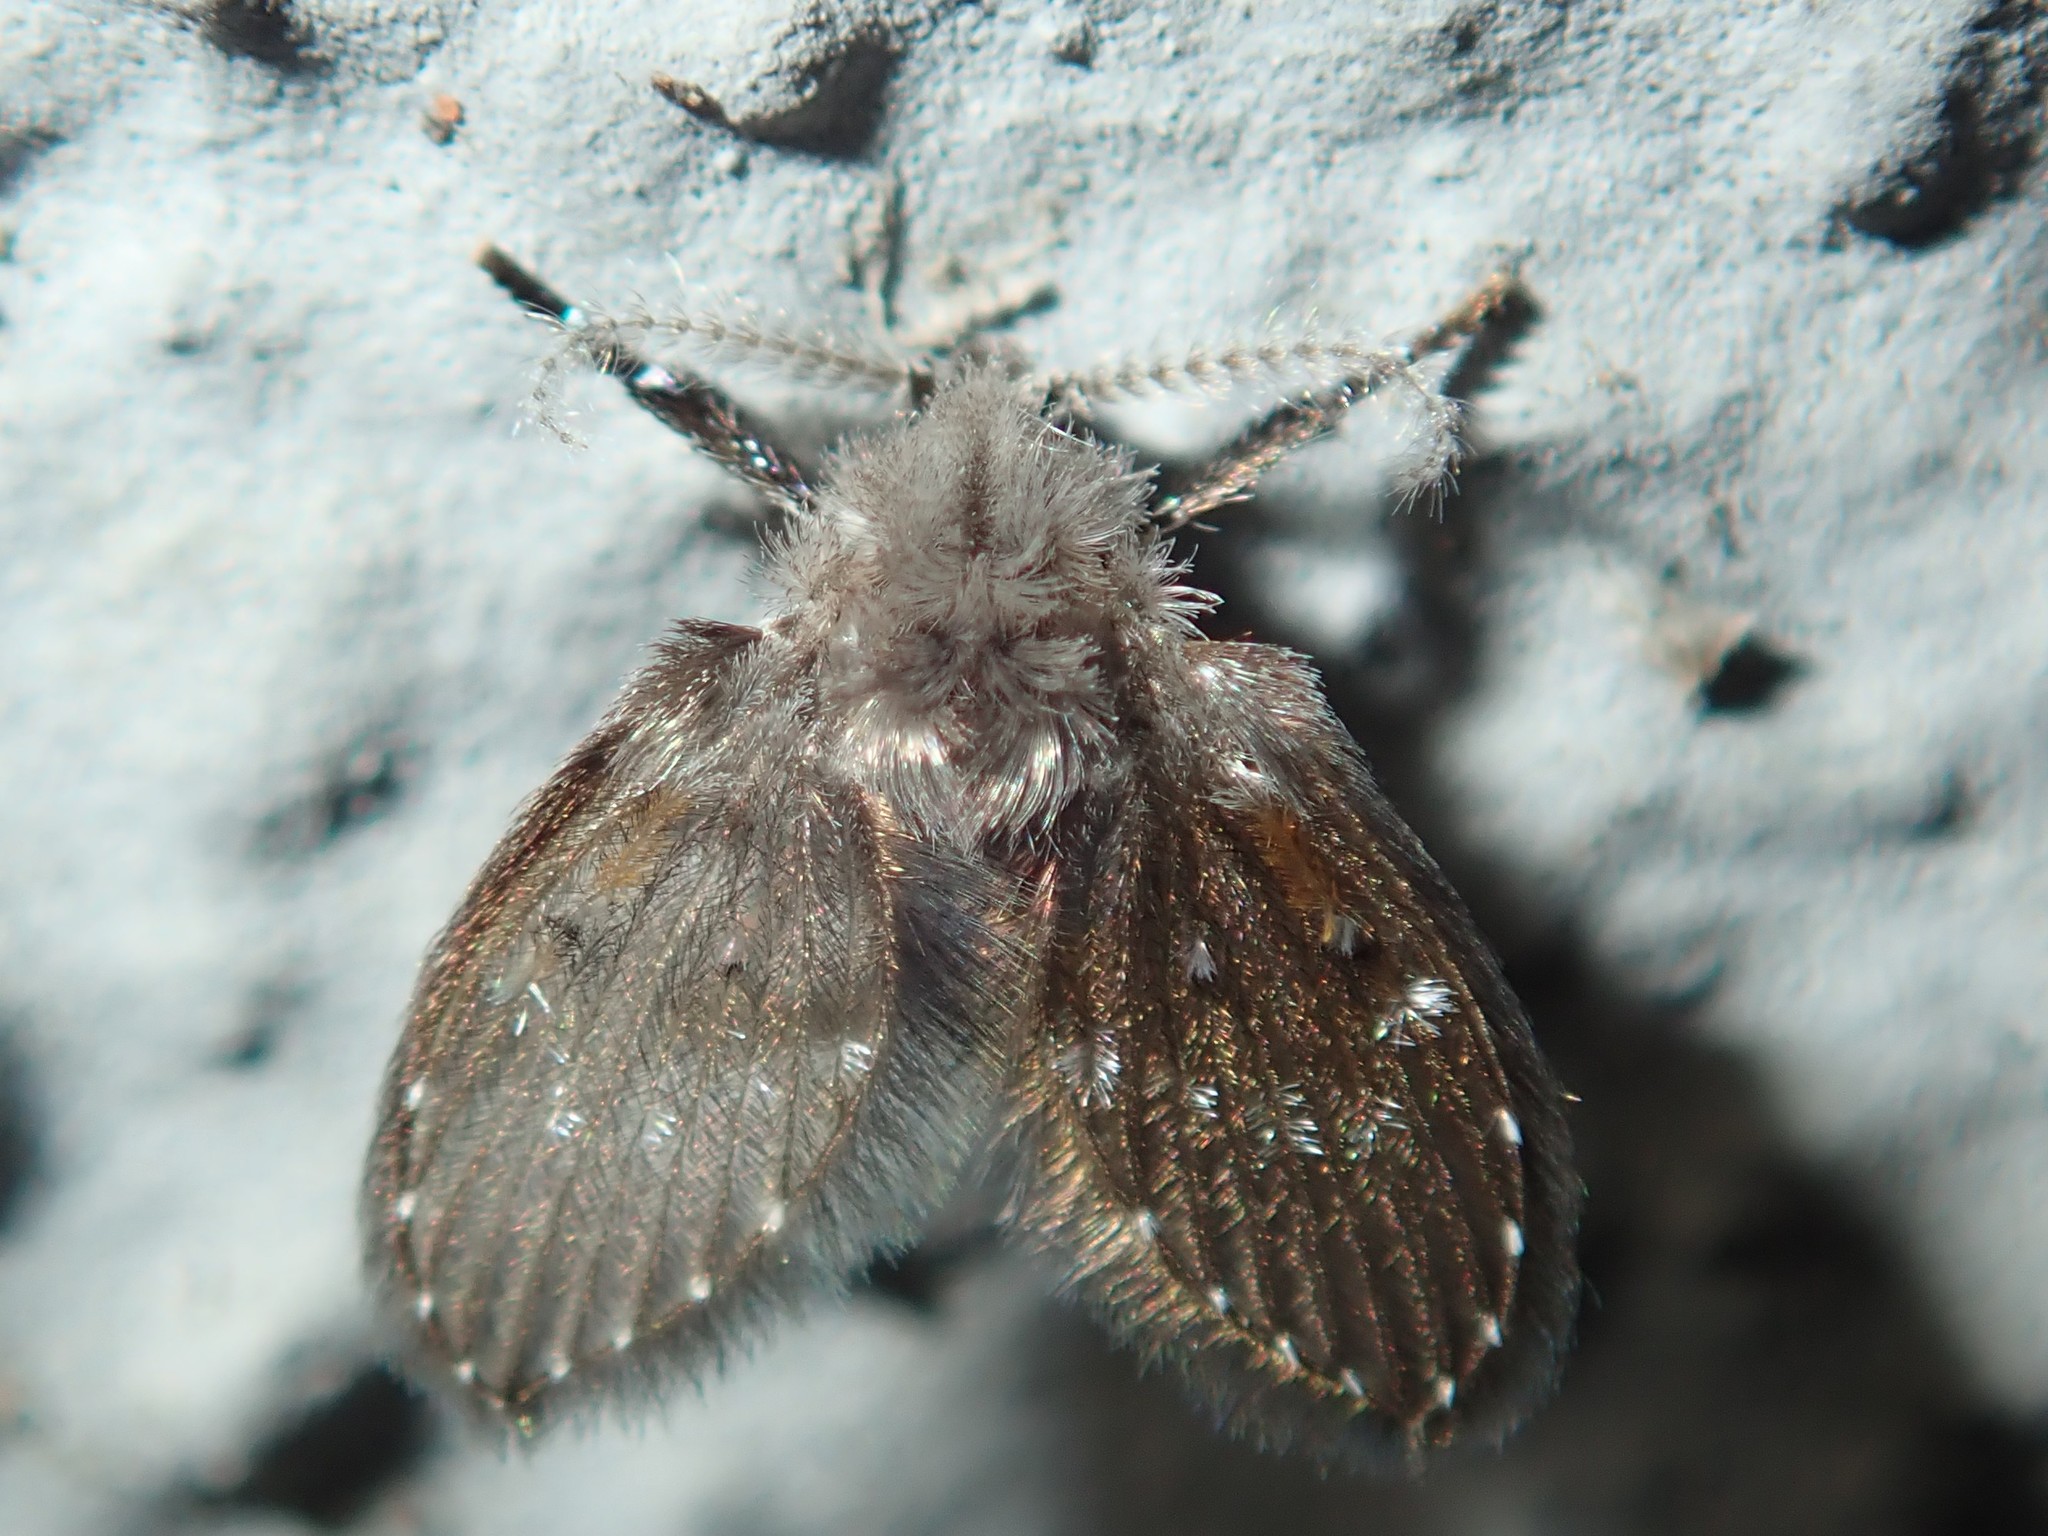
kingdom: Animalia
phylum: Arthropoda
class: Insecta
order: Diptera
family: Psychodidae
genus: Clogmia
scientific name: Clogmia albipunctatus
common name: White-spotted moth fly
